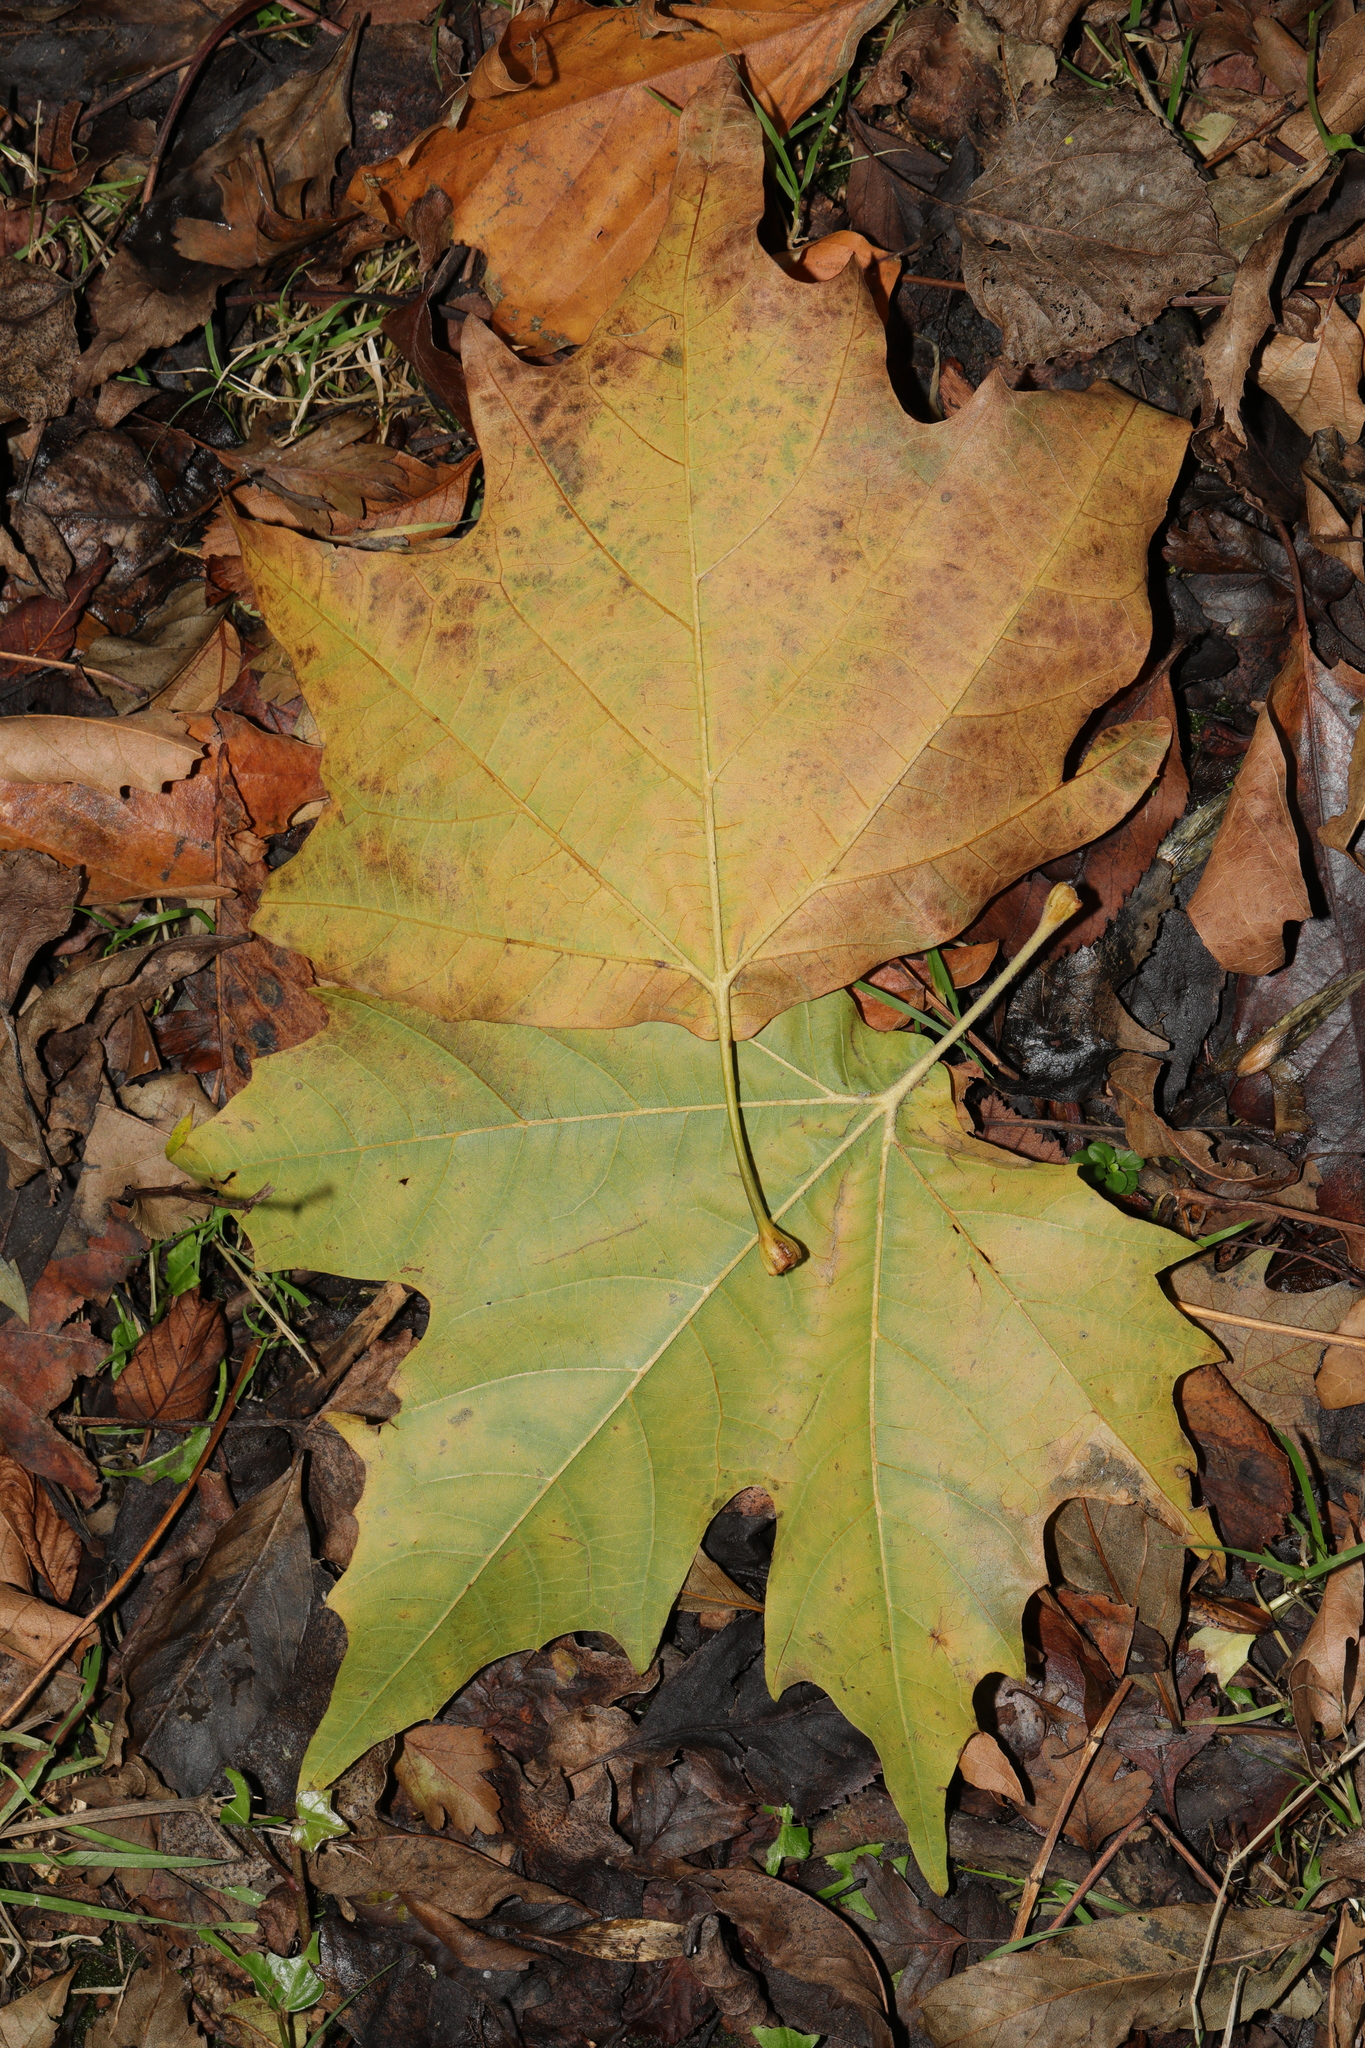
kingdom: Plantae
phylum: Tracheophyta
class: Magnoliopsida
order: Proteales
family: Platanaceae
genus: Platanus
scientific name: Platanus hispanica
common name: London plane
